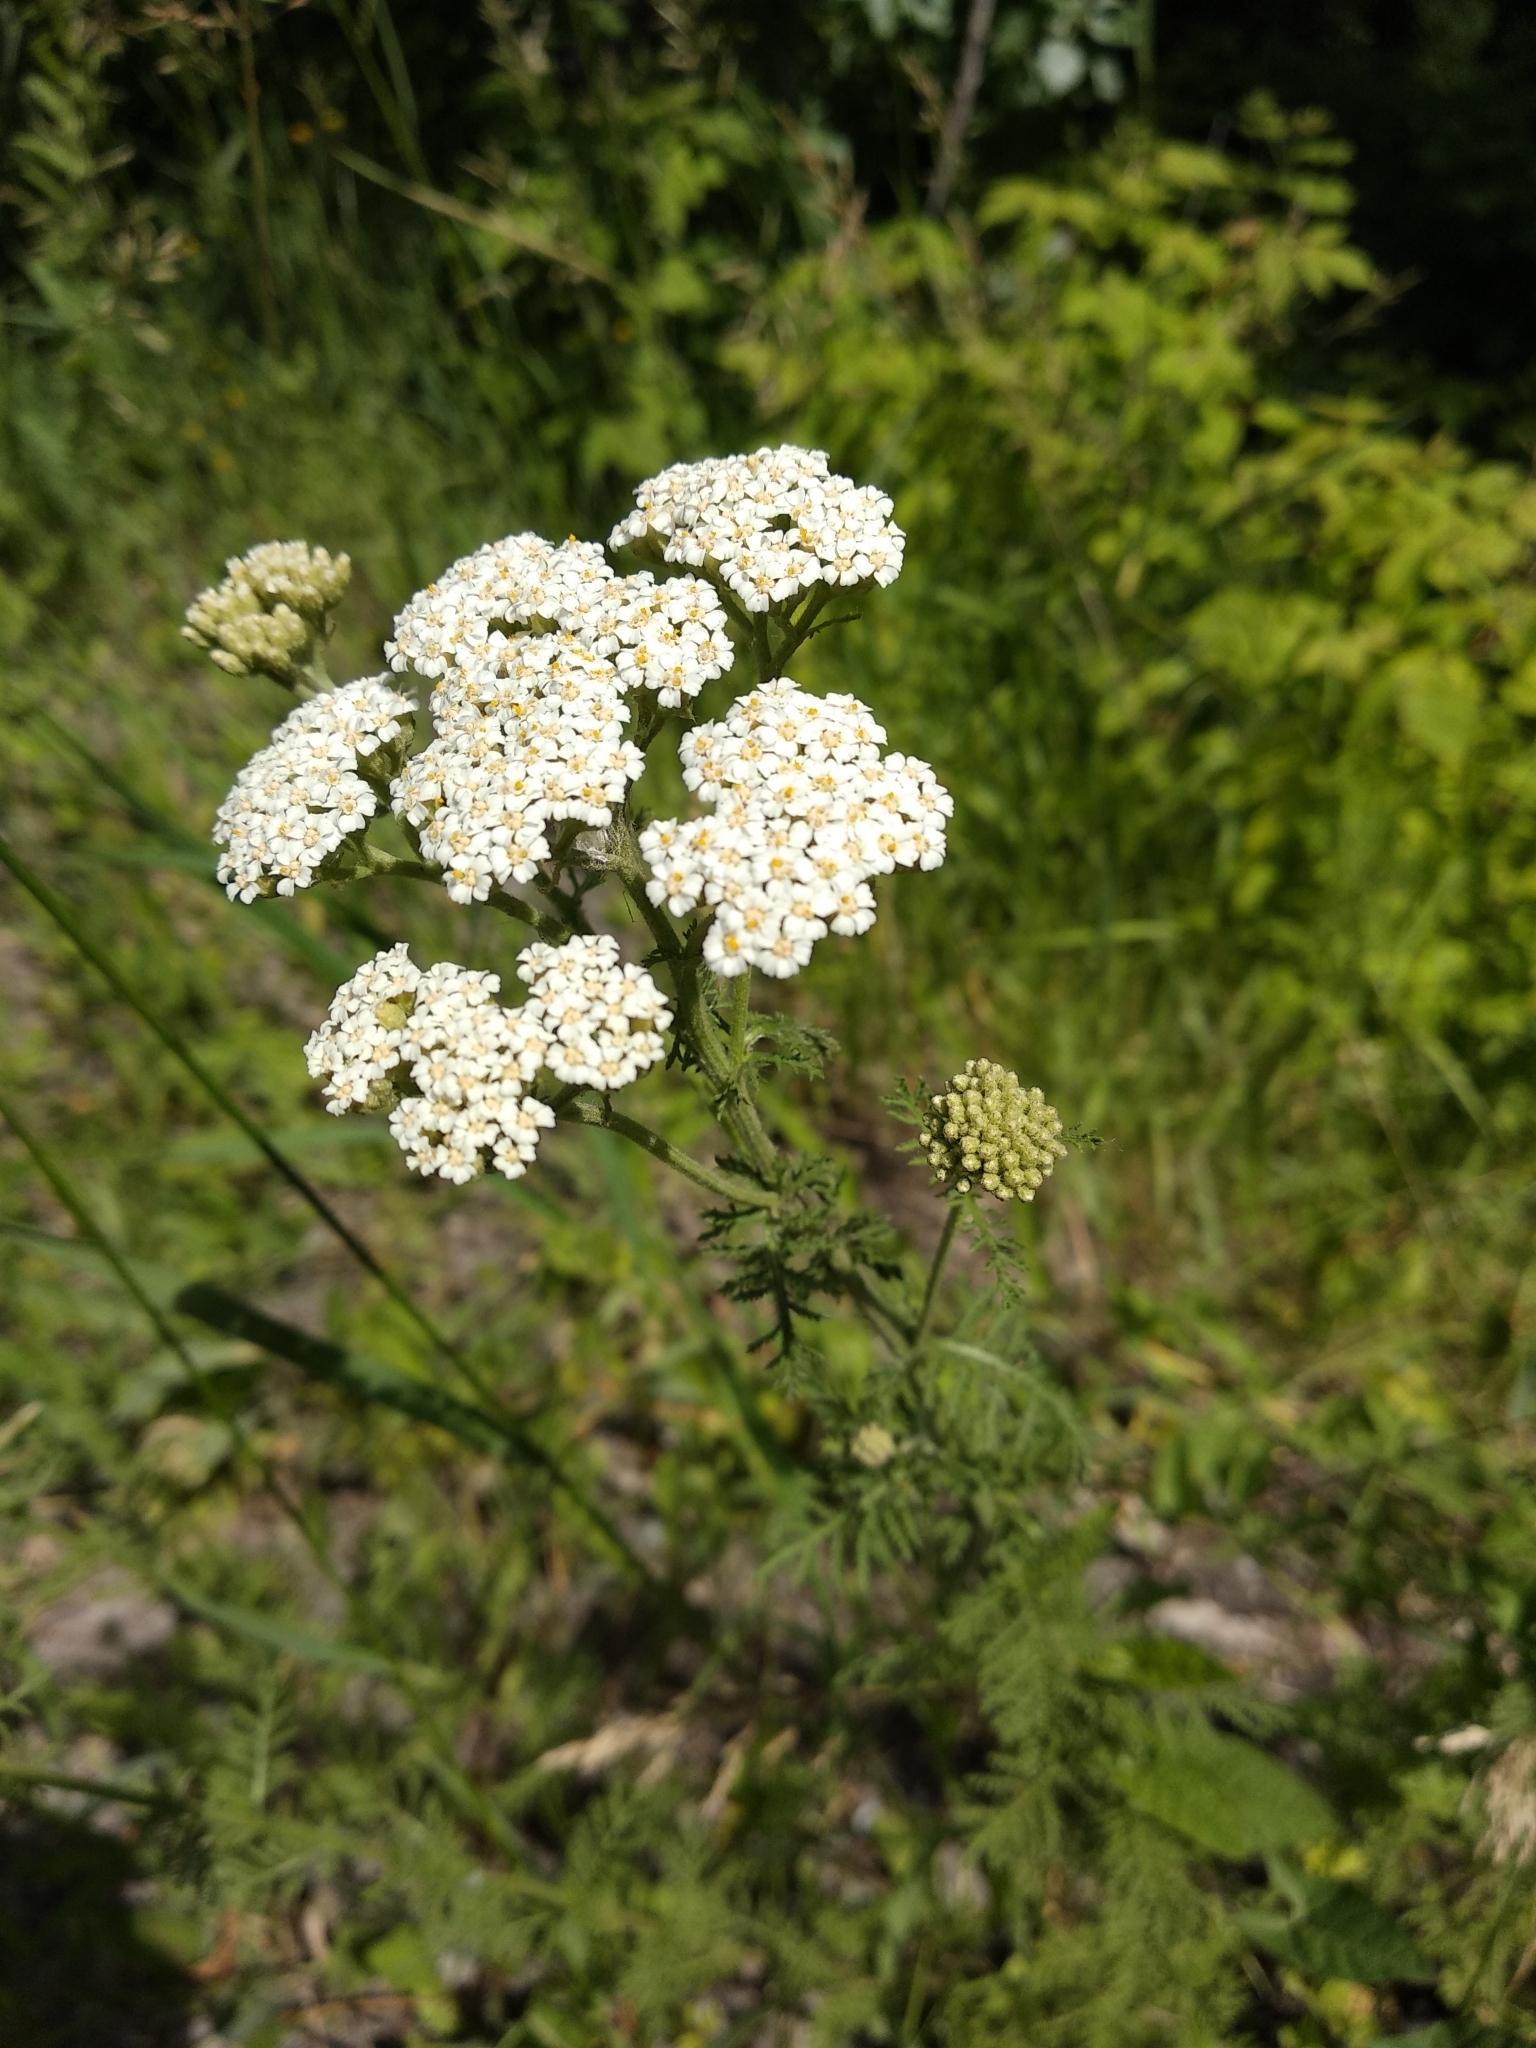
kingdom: Plantae
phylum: Tracheophyta
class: Magnoliopsida
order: Asterales
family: Asteraceae
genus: Achillea
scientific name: Achillea nobilis
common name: Noble yarrow
